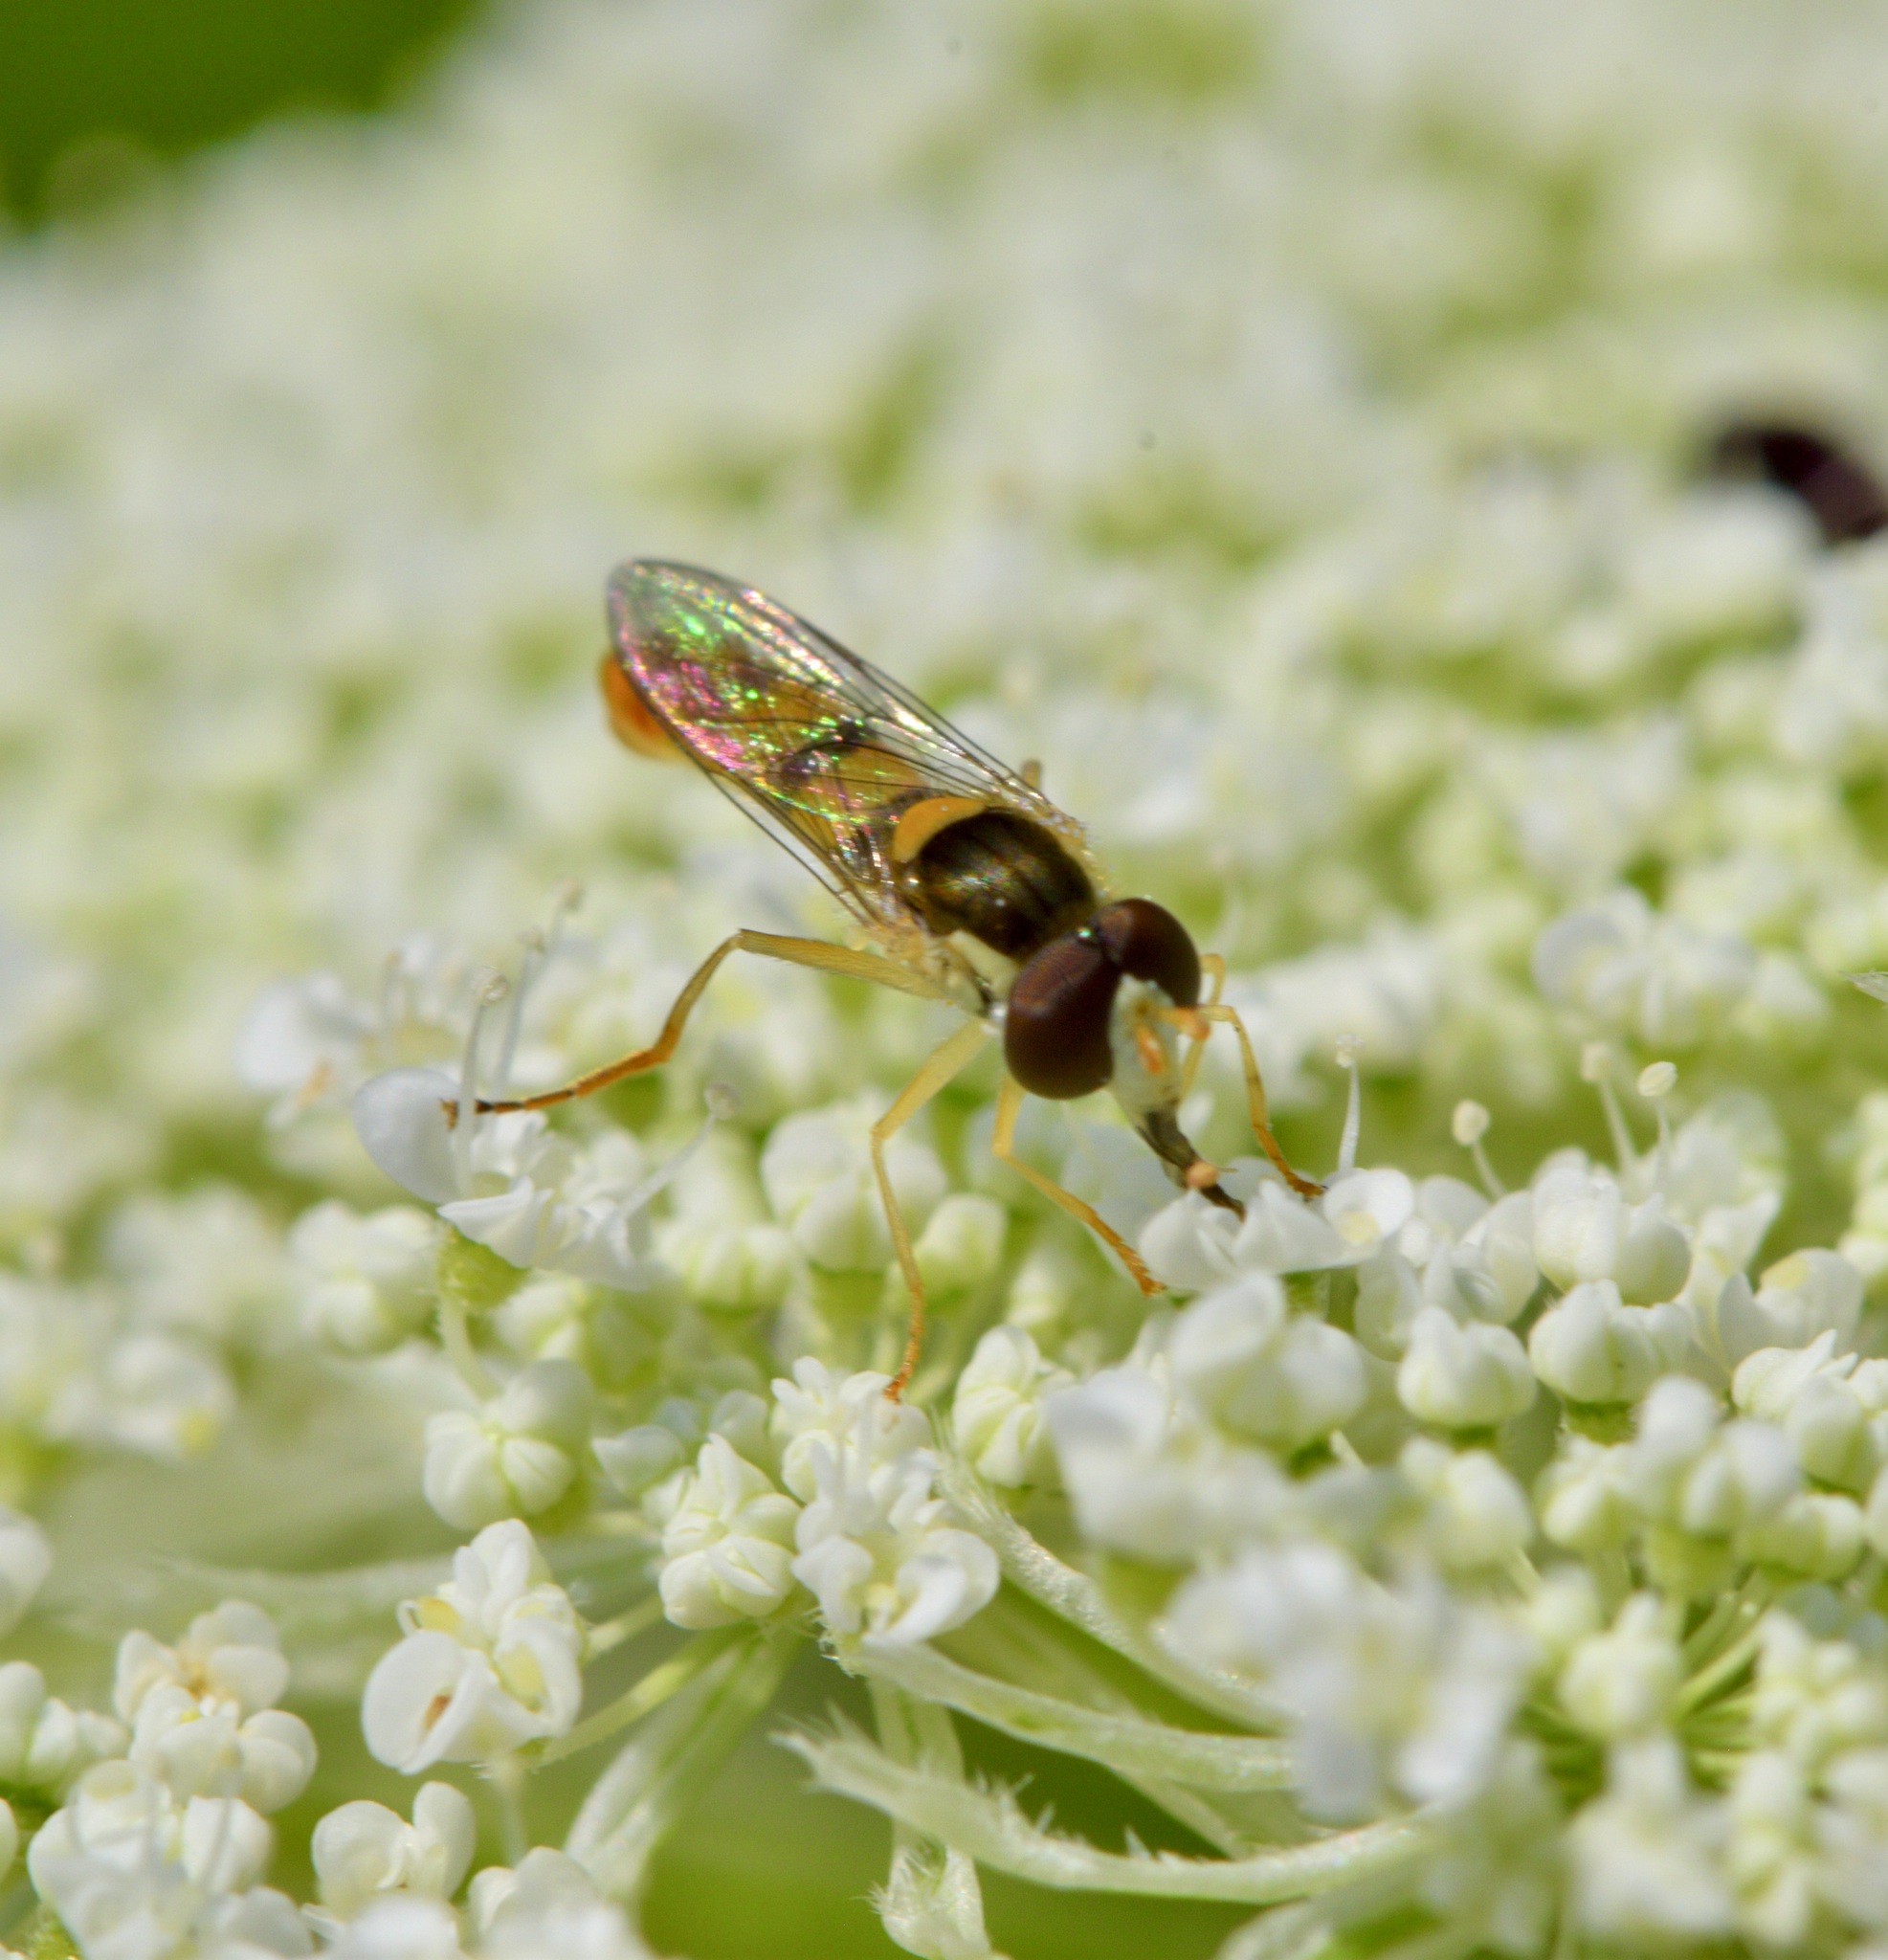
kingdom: Animalia
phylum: Arthropoda
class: Insecta
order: Diptera
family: Syrphidae
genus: Sphaerophoria
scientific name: Sphaerophoria contigua
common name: Tufted globetail
